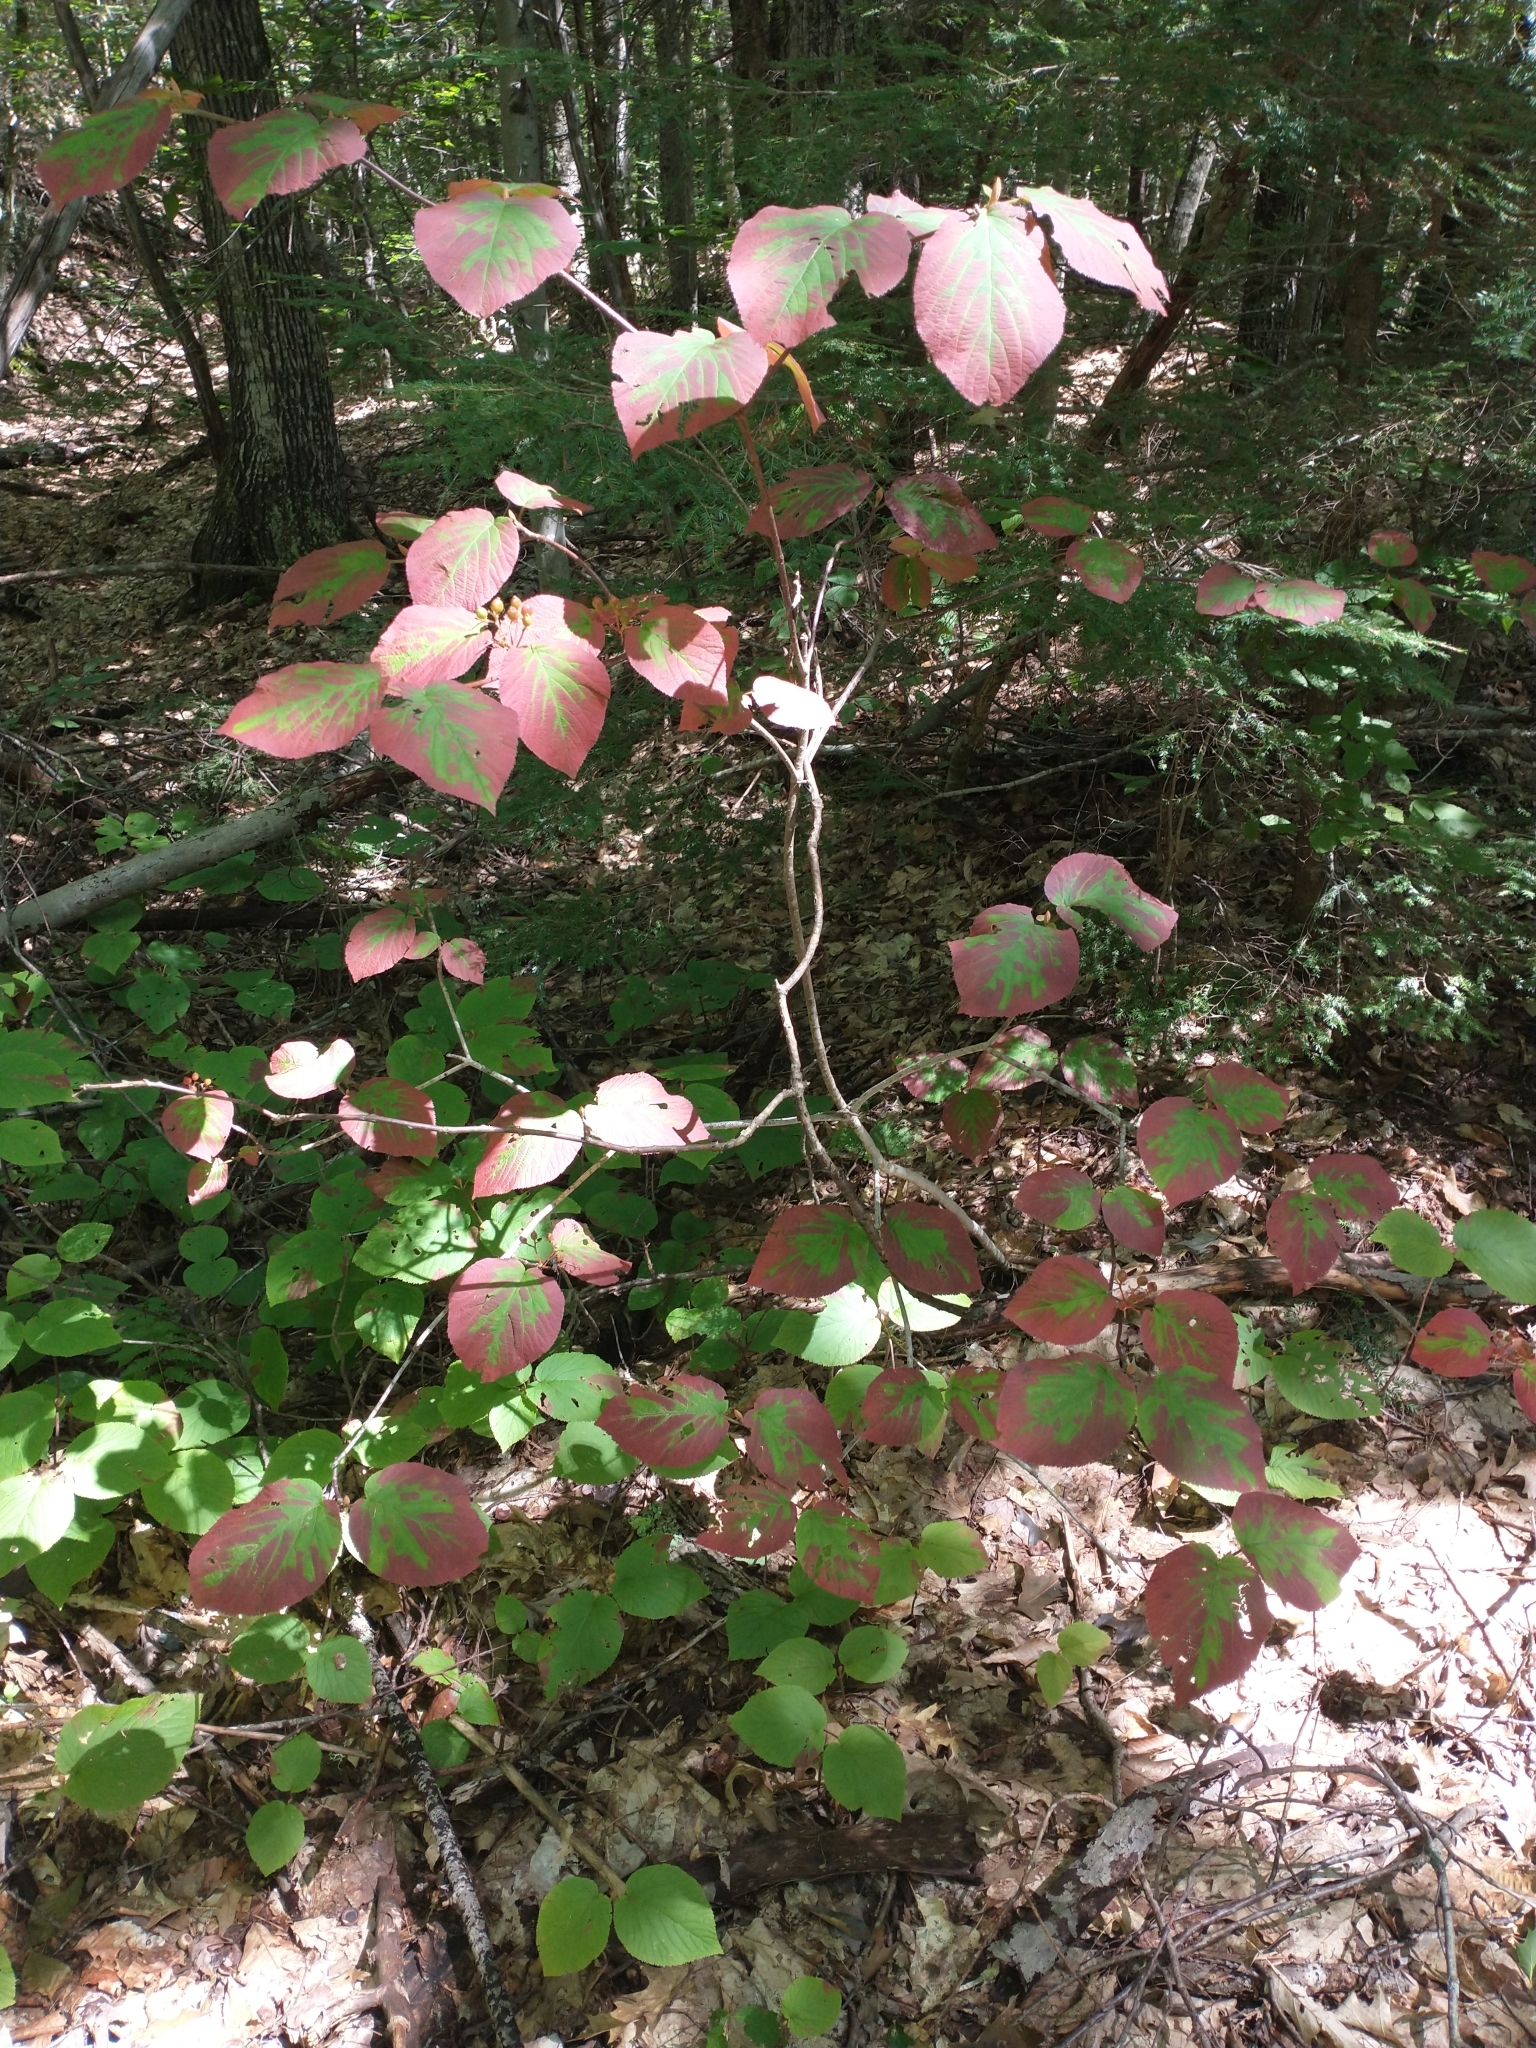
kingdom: Plantae
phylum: Tracheophyta
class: Magnoliopsida
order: Dipsacales
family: Viburnaceae
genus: Viburnum
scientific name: Viburnum lantanoides
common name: Hobblebush
